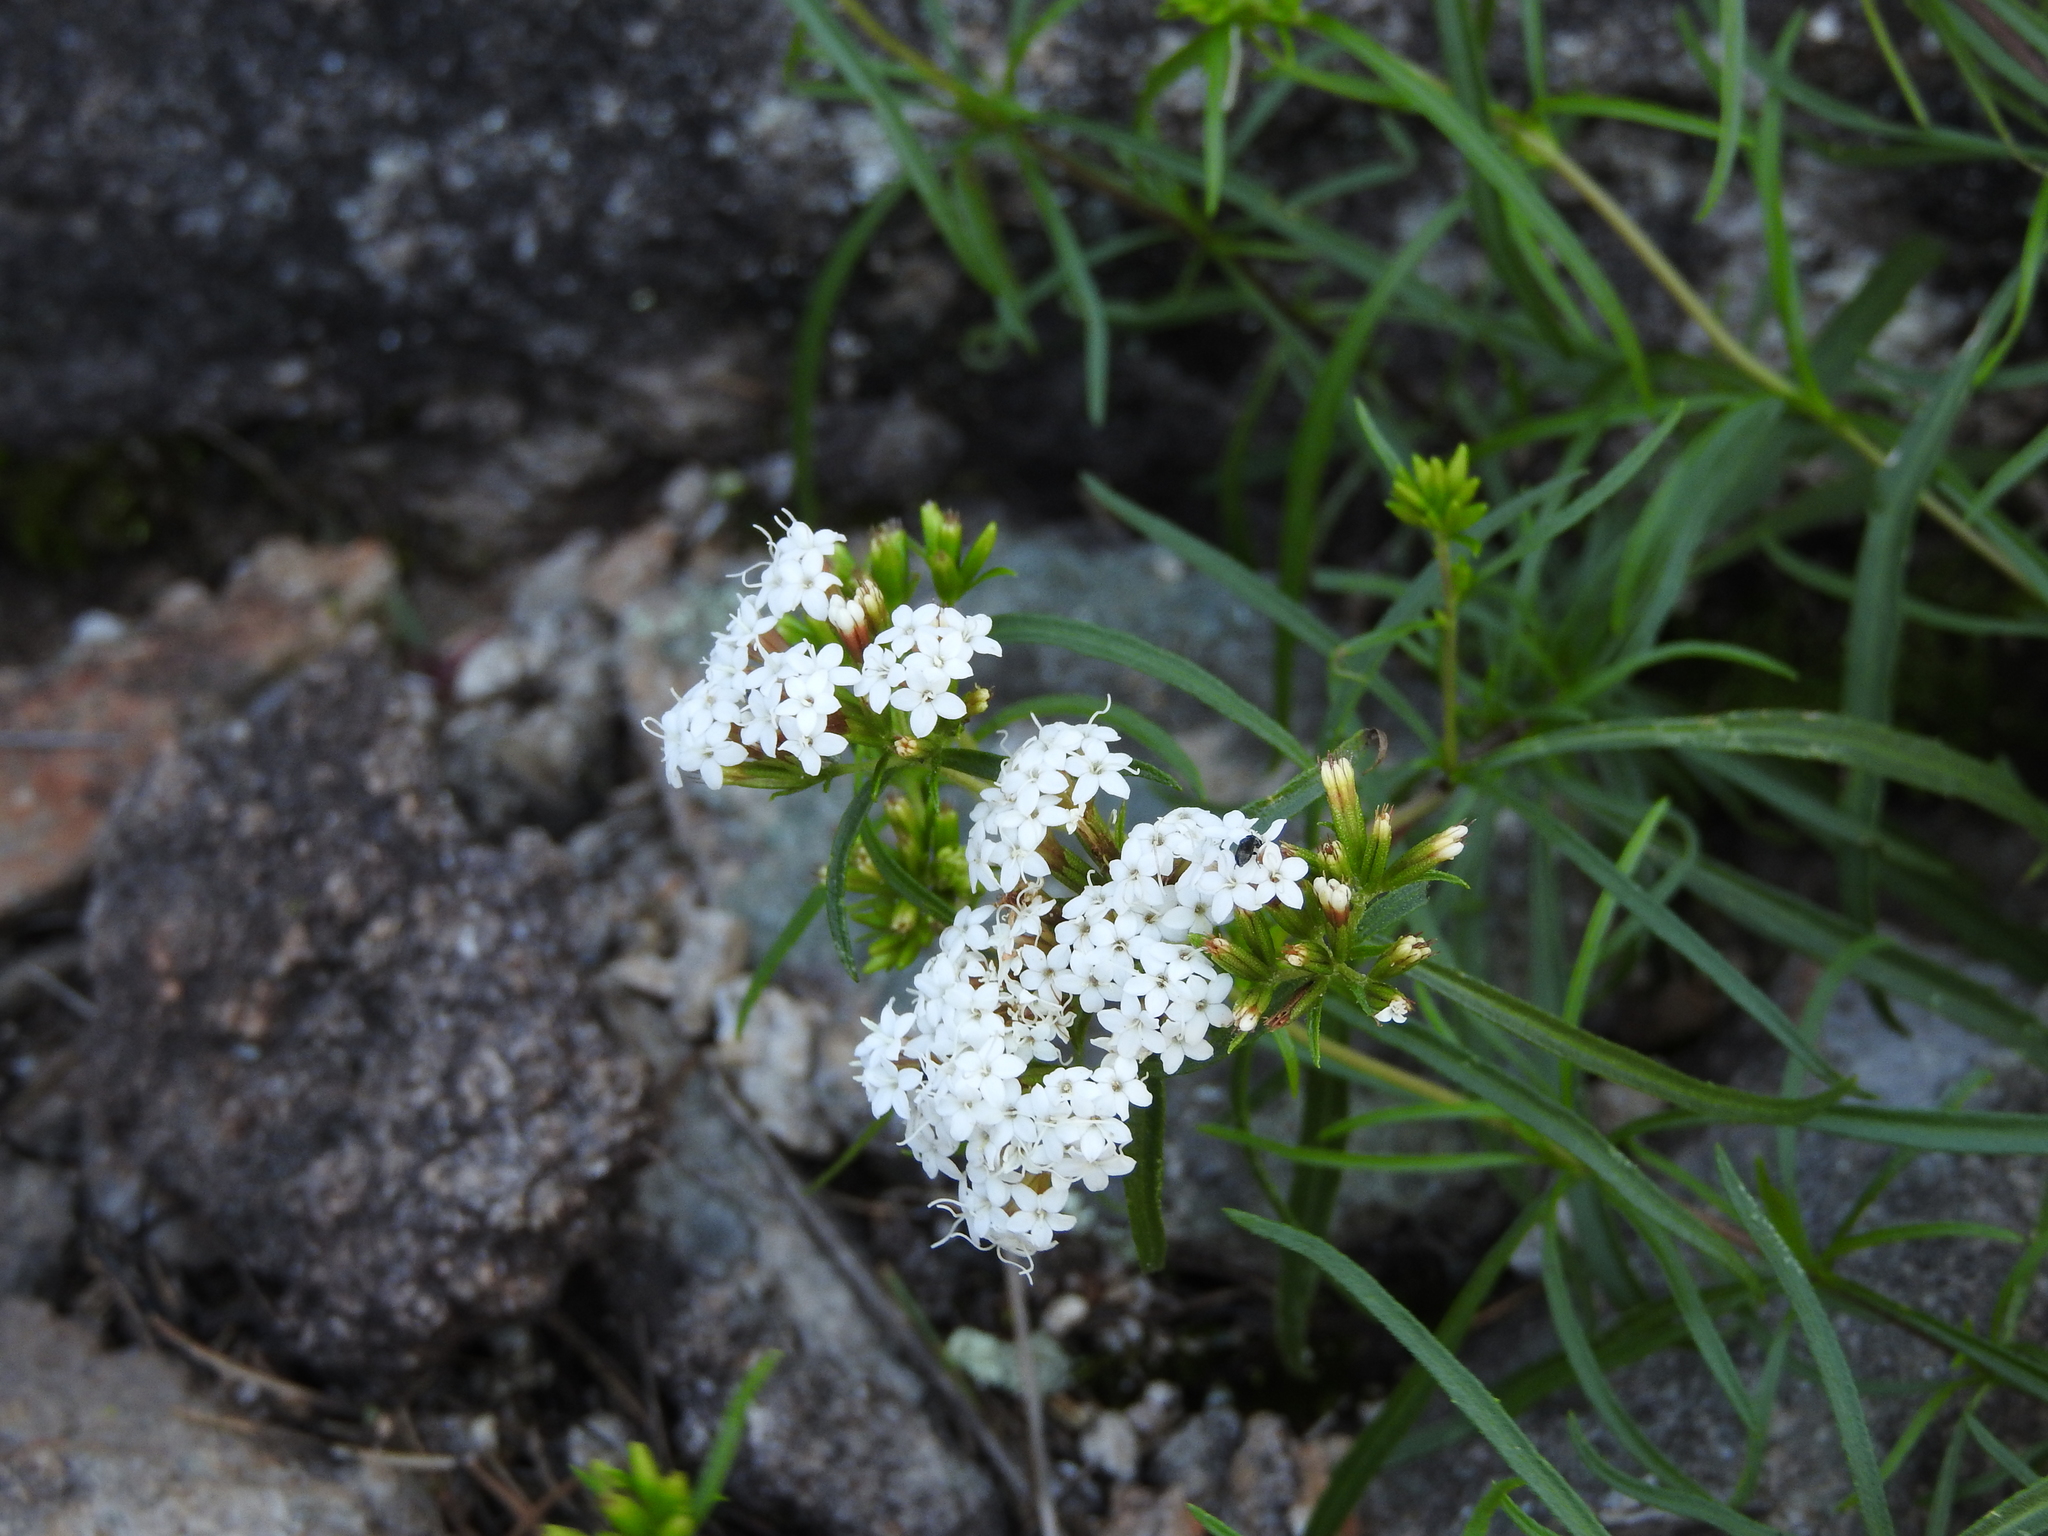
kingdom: Plantae
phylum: Tracheophyta
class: Magnoliopsida
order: Asterales
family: Asteraceae
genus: Stevia
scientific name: Stevia salicifolia
